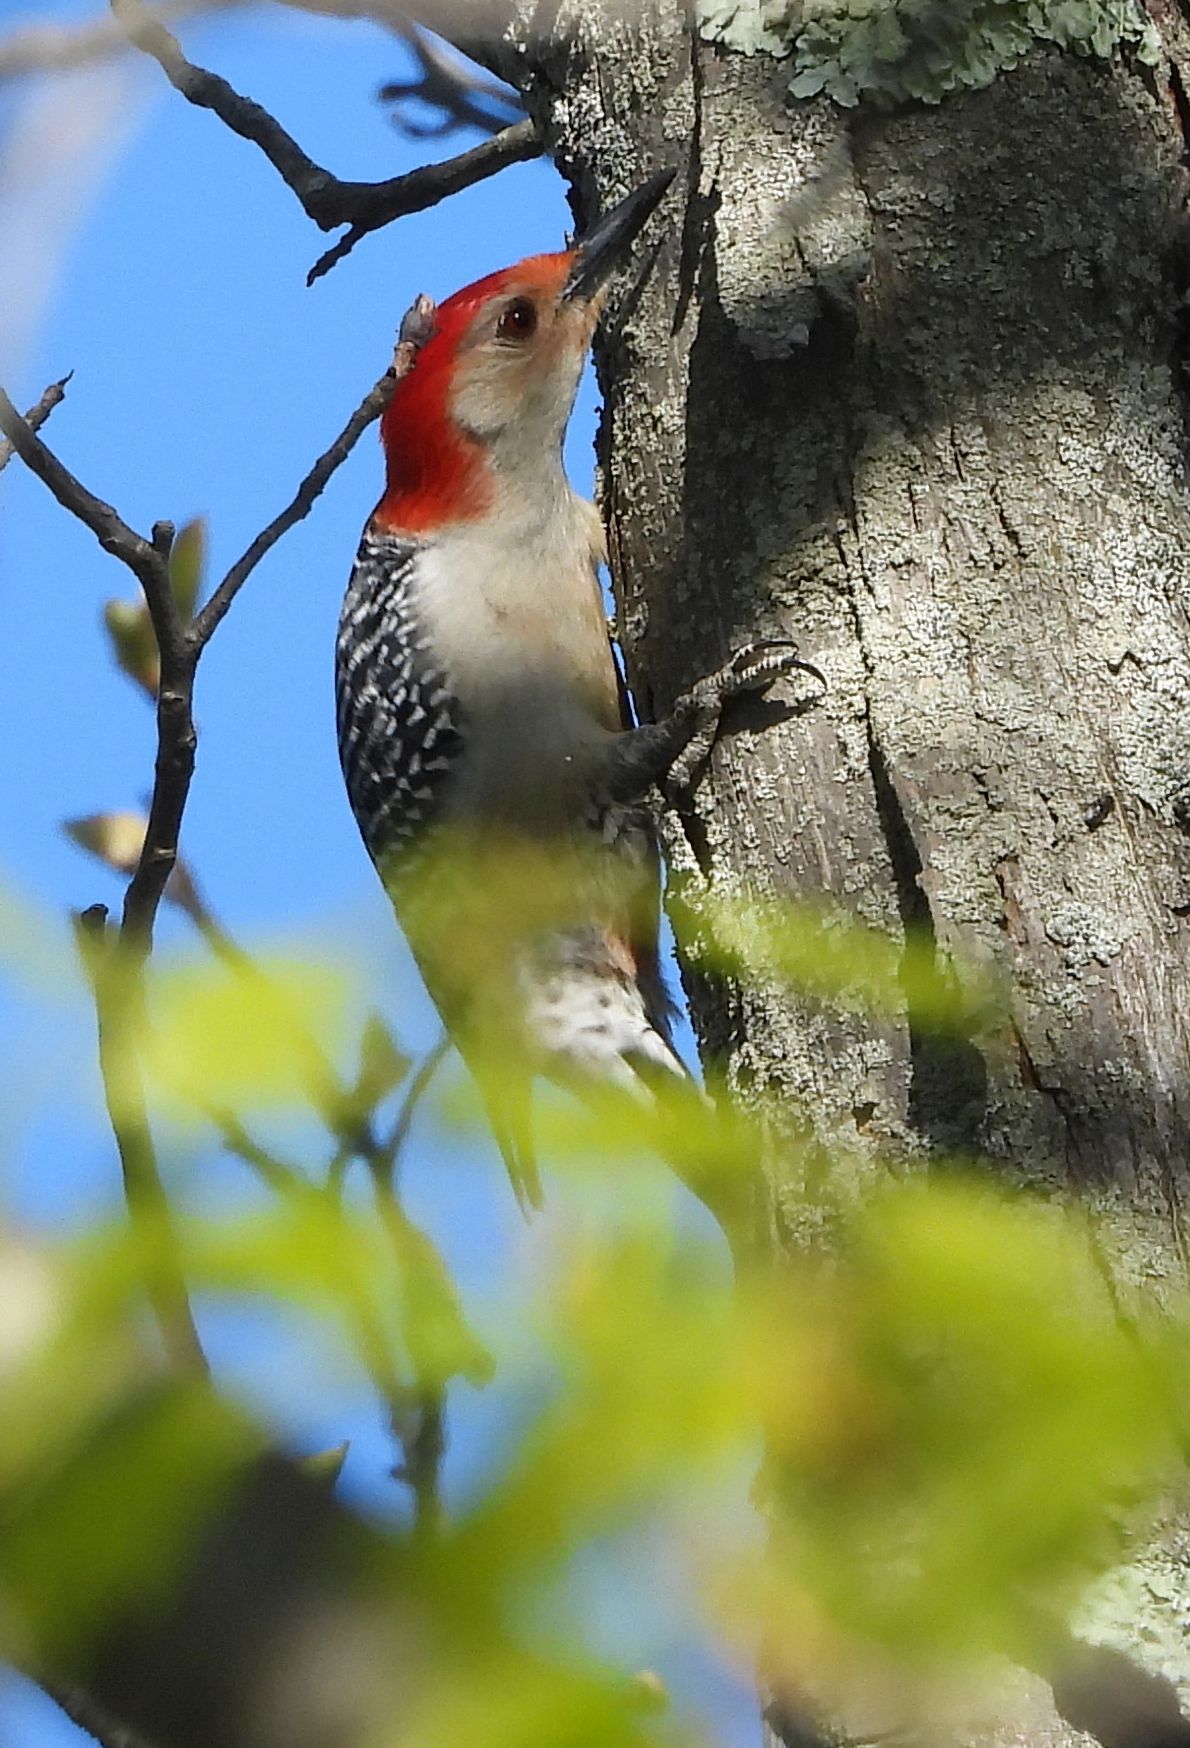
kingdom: Animalia
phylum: Chordata
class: Aves
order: Piciformes
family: Picidae
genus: Melanerpes
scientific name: Melanerpes carolinus
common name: Red-bellied woodpecker
